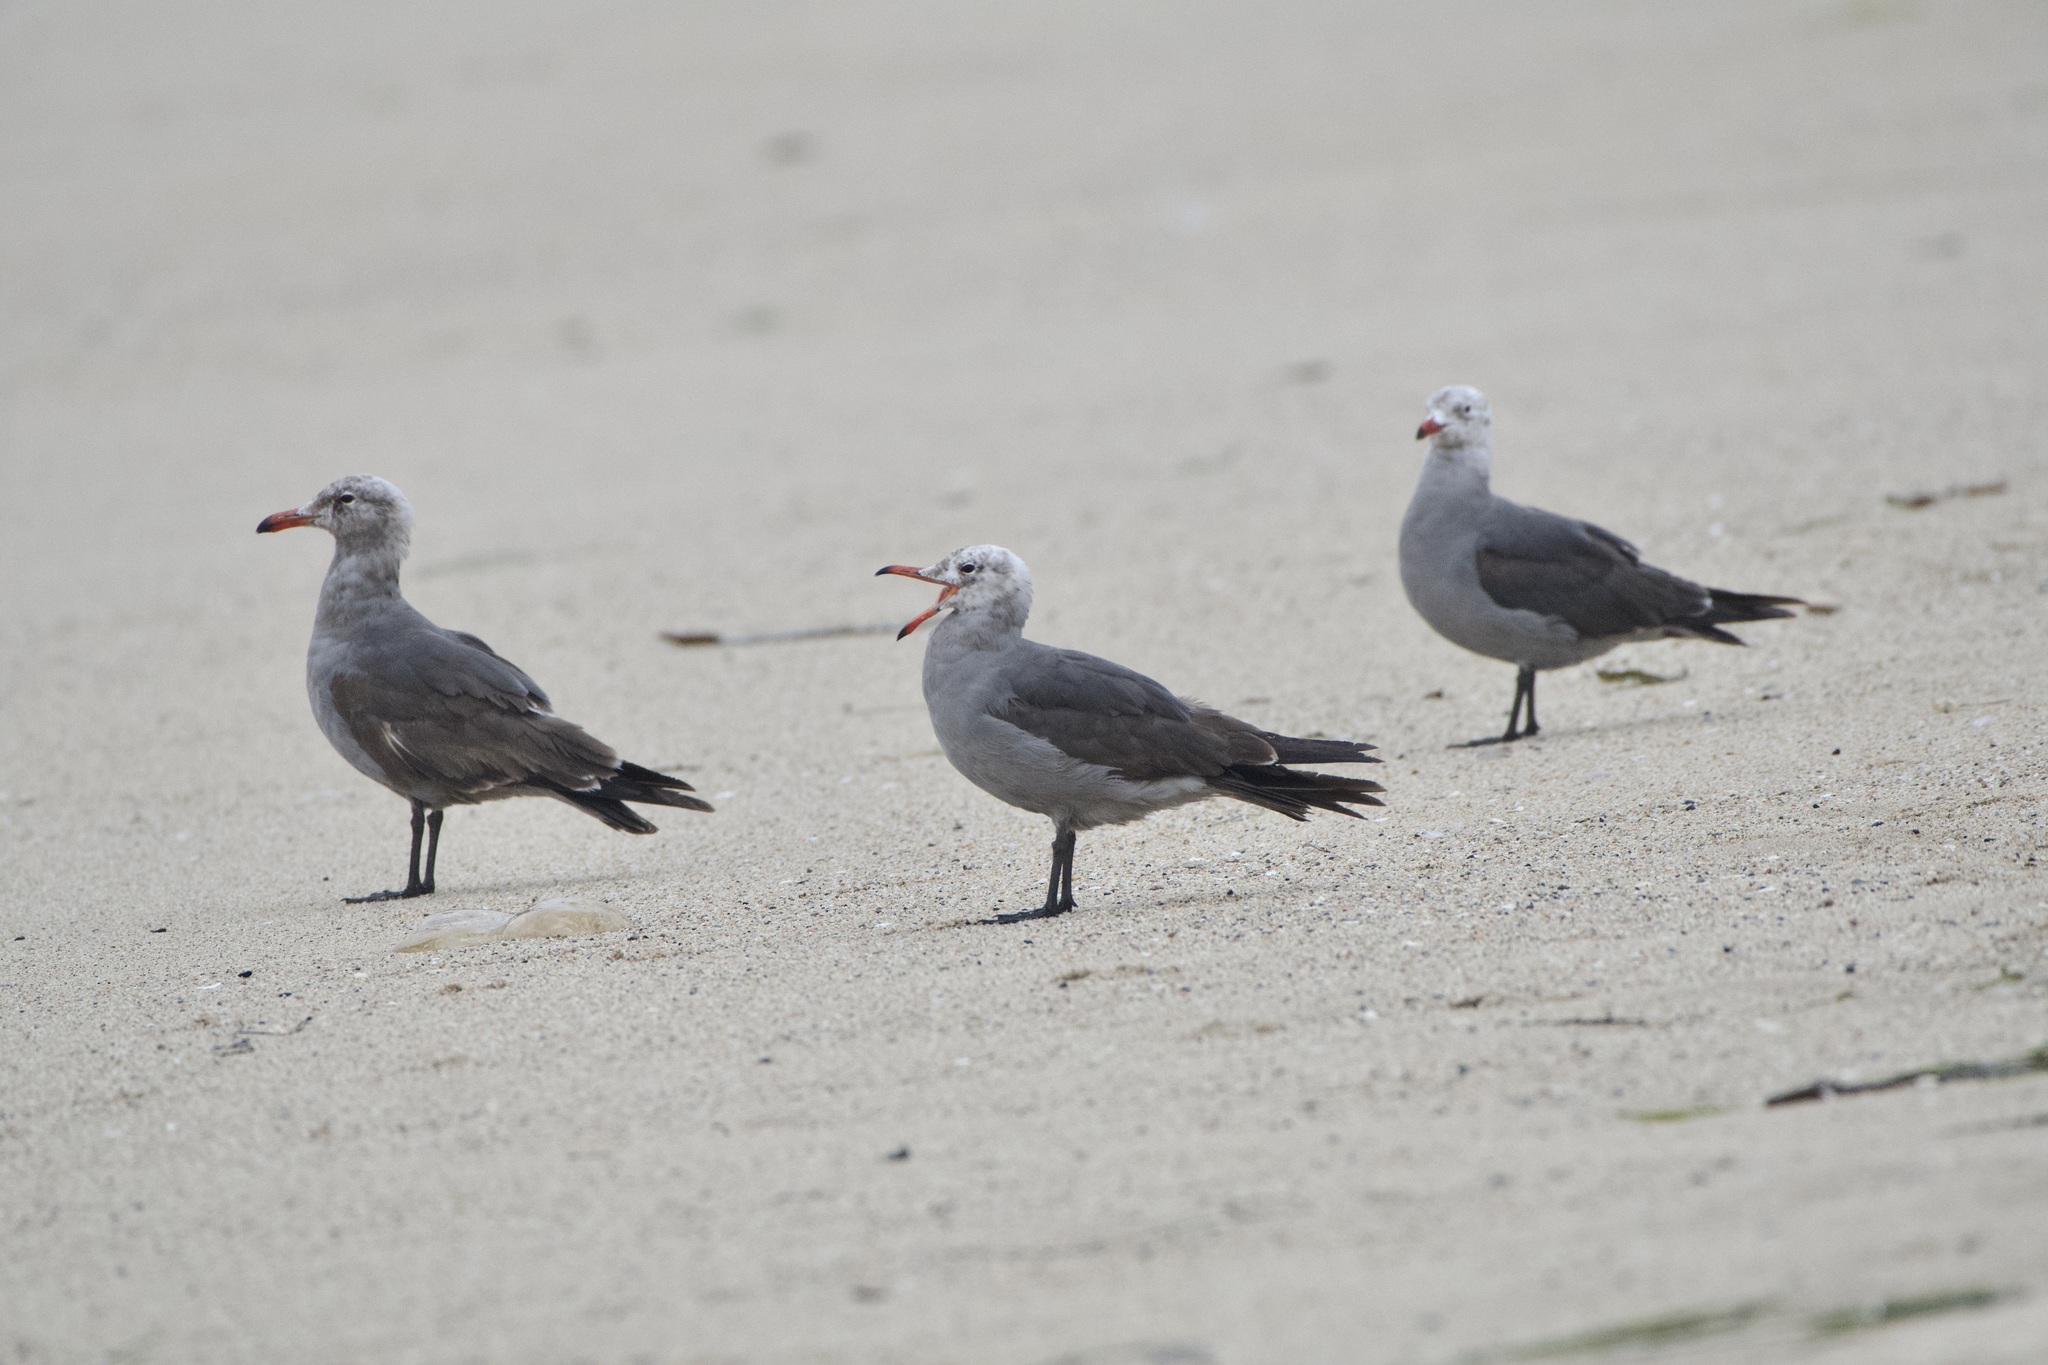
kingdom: Animalia
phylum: Chordata
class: Aves
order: Charadriiformes
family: Laridae
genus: Larus
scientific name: Larus heermanni
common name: Heermann's gull
